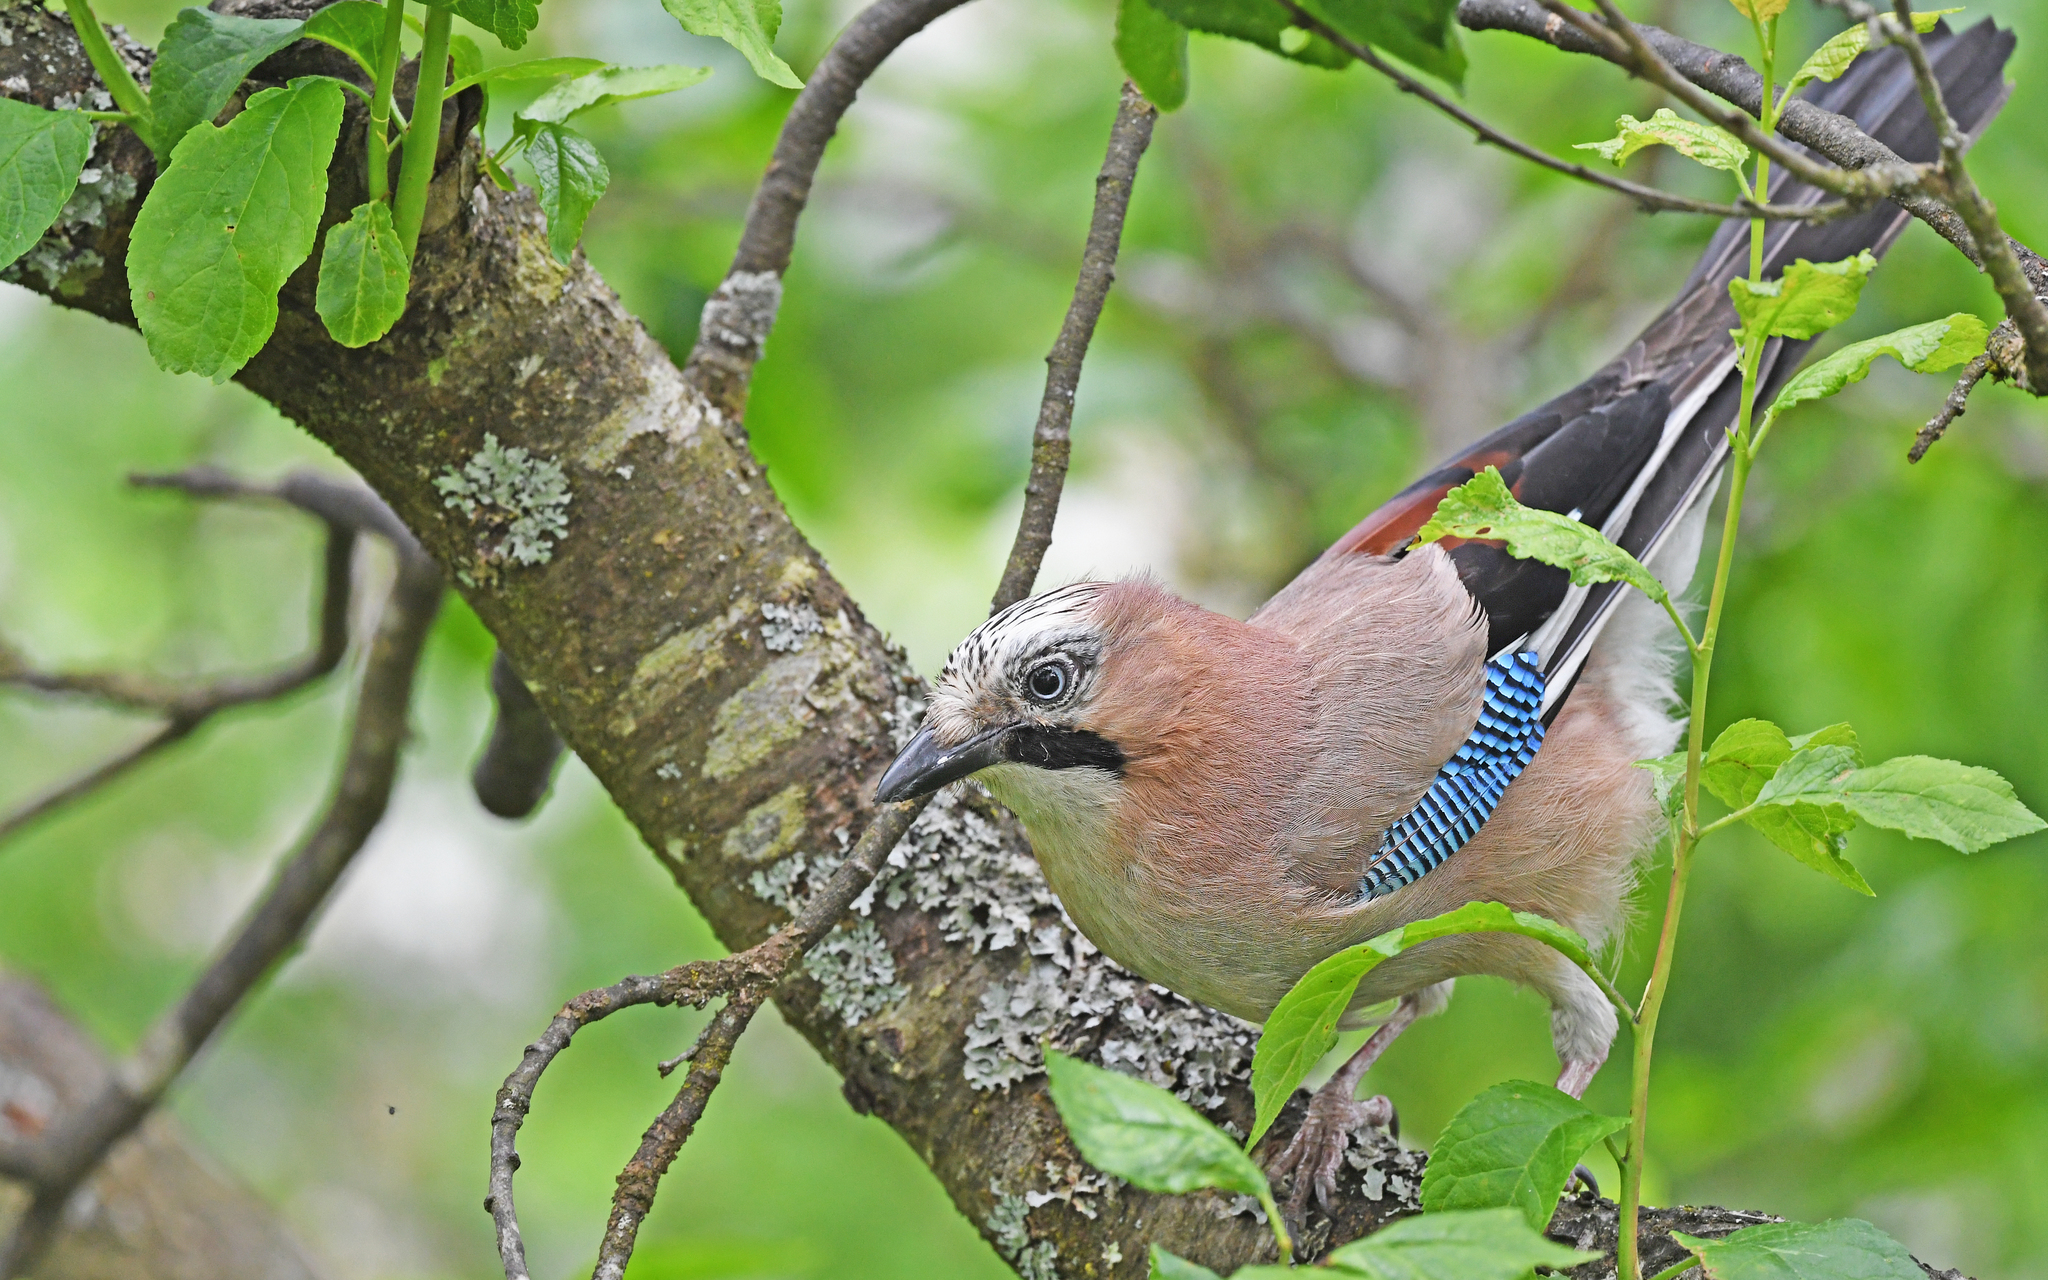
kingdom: Animalia
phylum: Chordata
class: Aves
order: Passeriformes
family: Corvidae
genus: Garrulus
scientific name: Garrulus glandarius
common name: Eurasian jay
